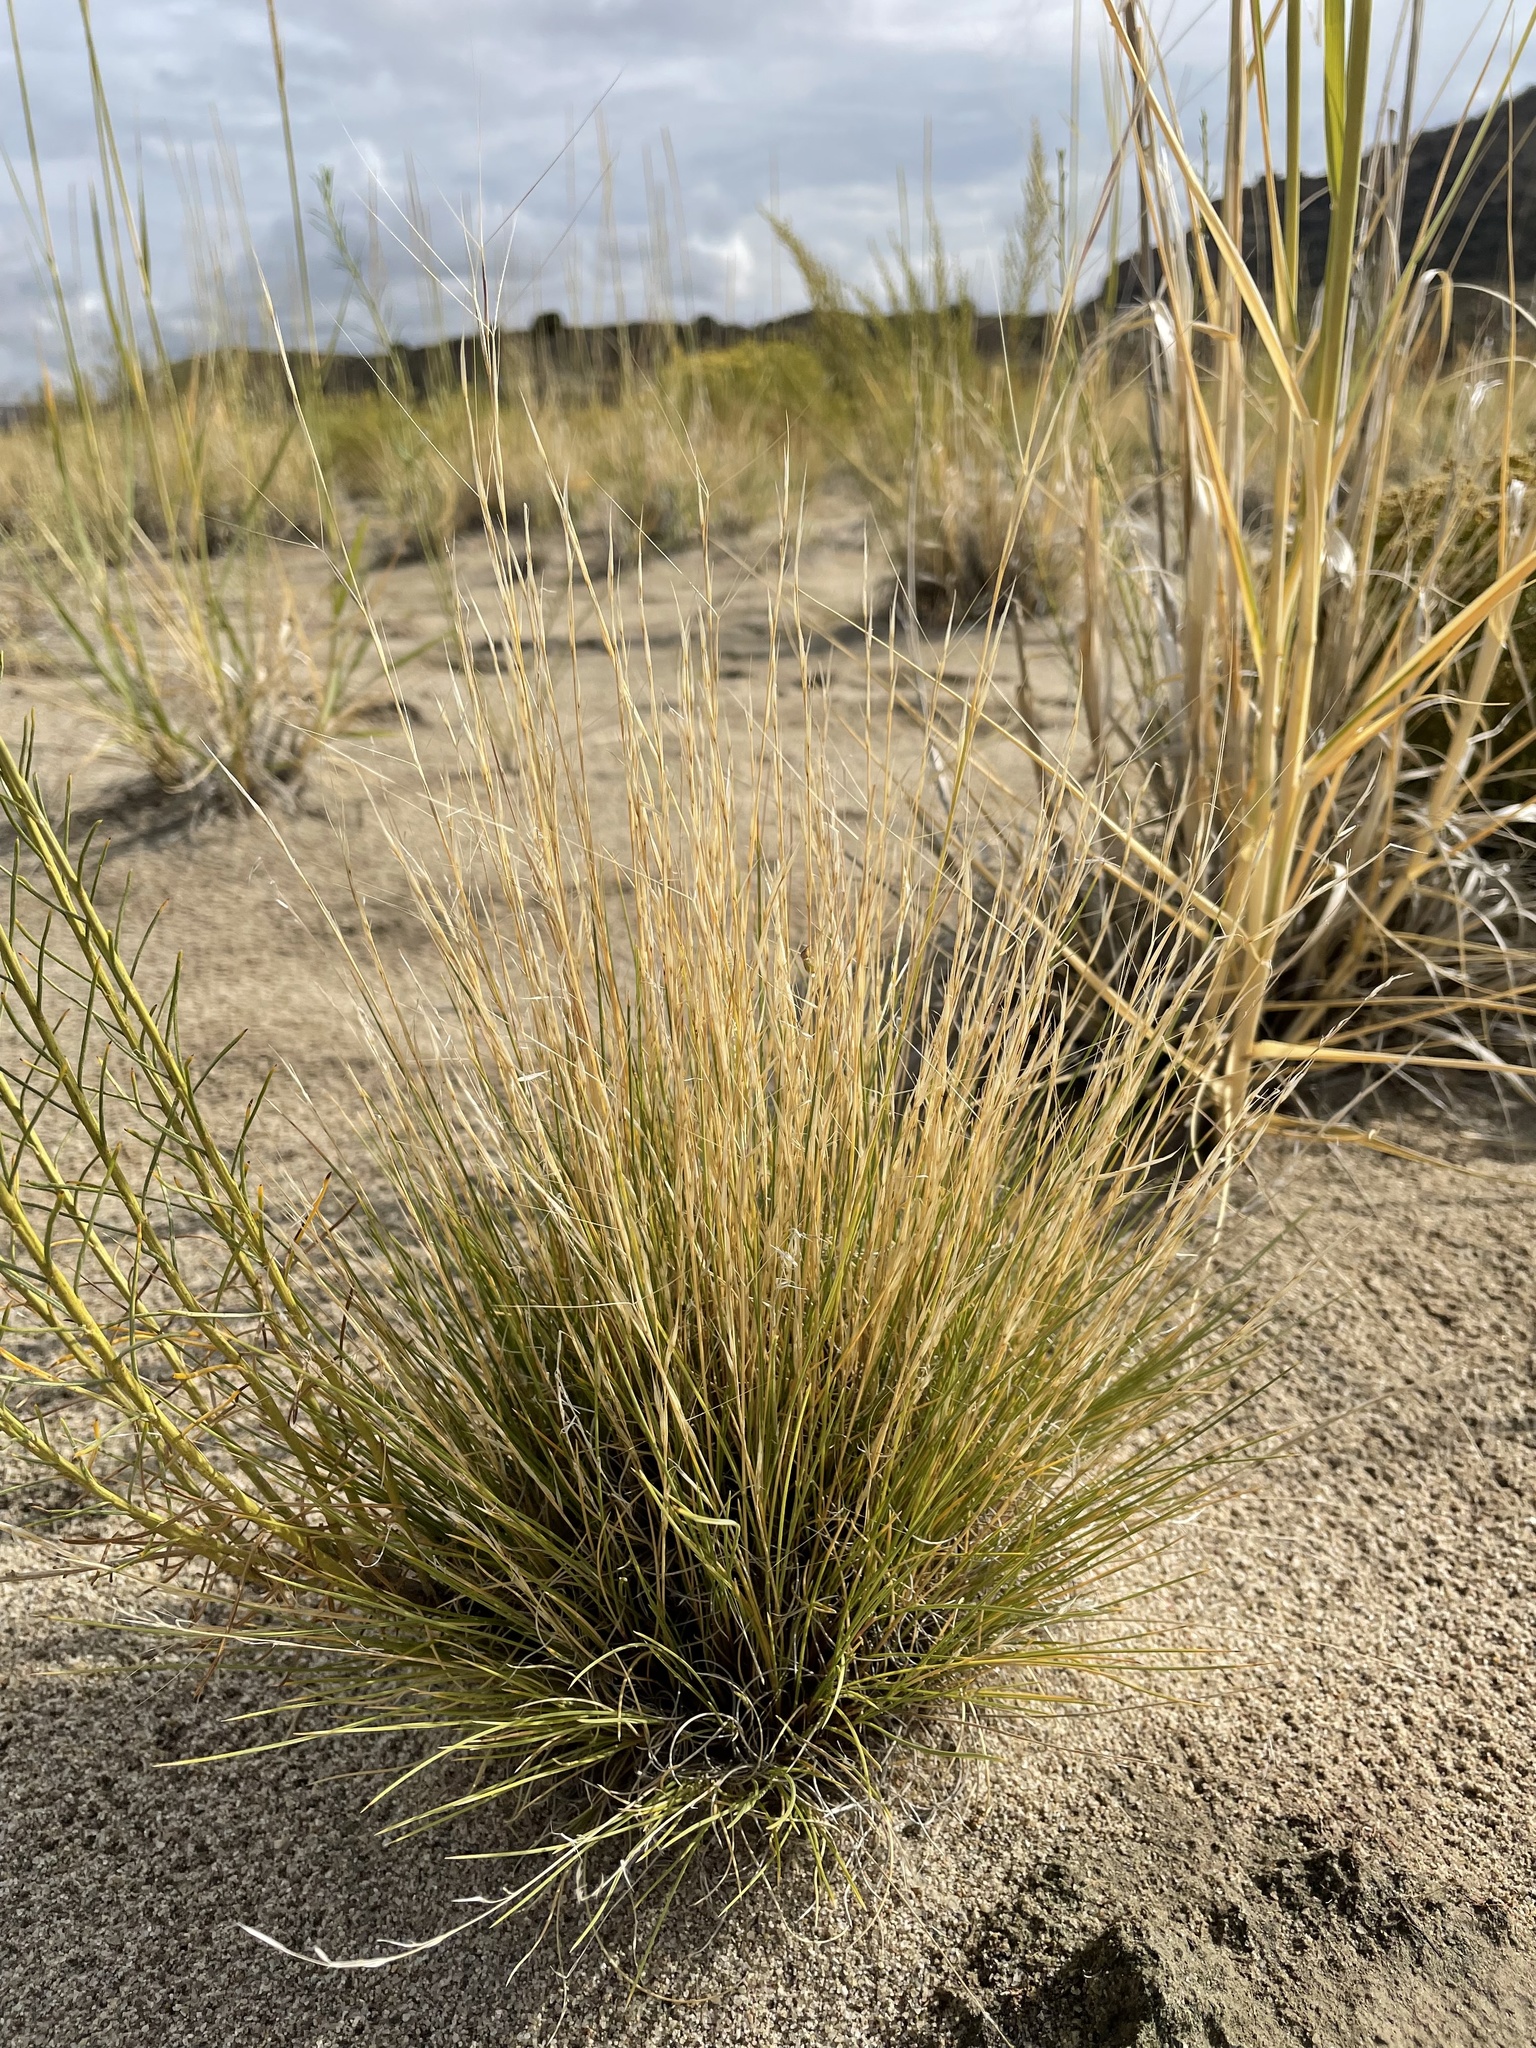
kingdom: Plantae
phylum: Tracheophyta
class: Liliopsida
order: Poales
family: Poaceae
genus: Aristida
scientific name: Aristida purpurea
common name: Purple threeawn
